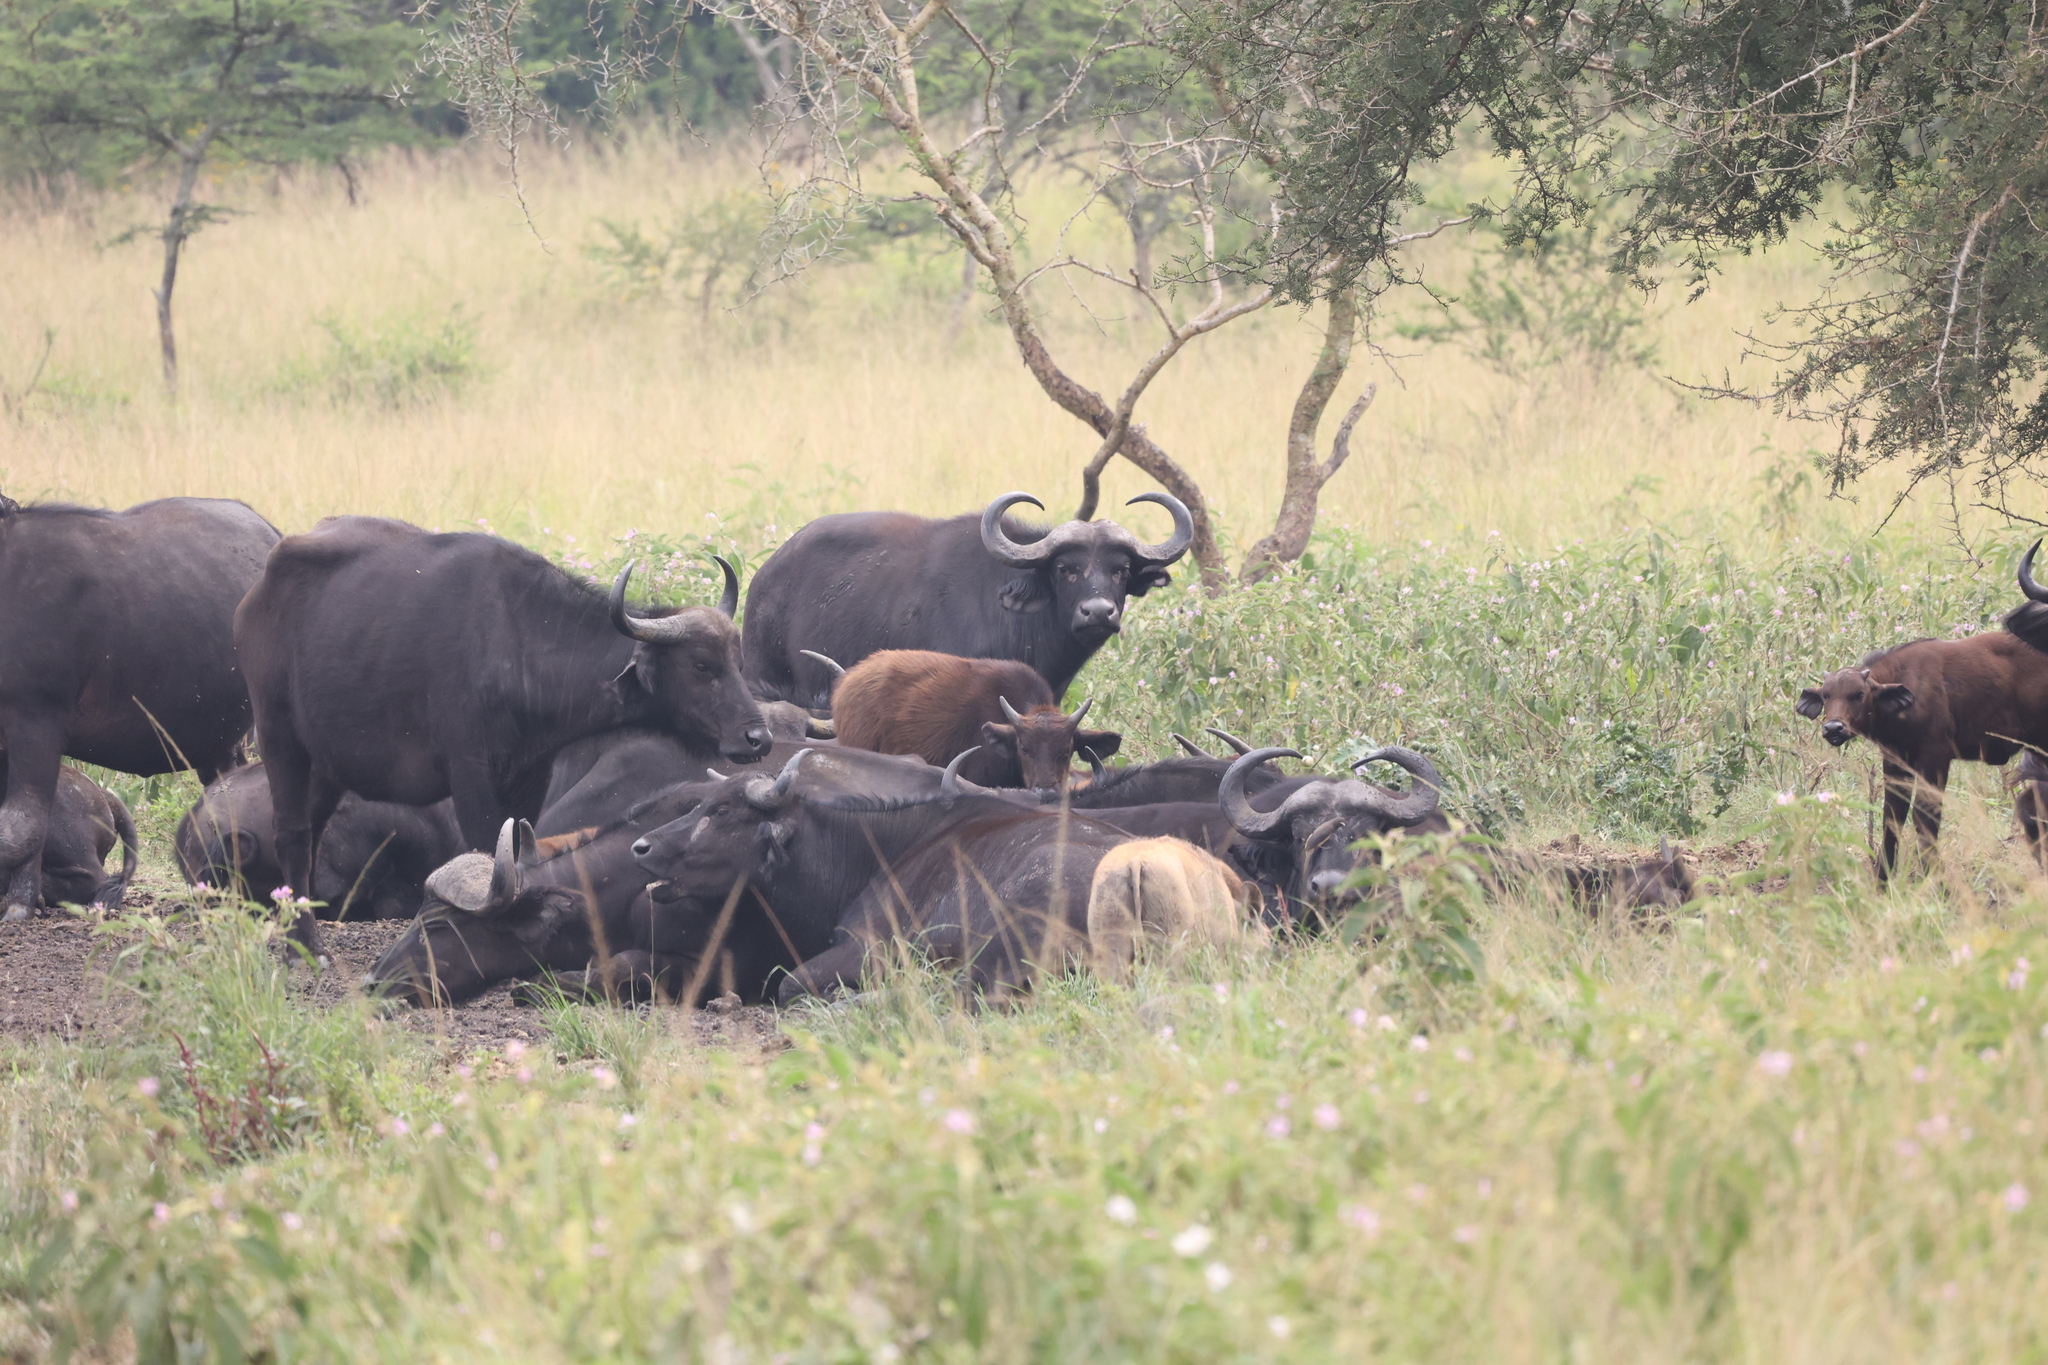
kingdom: Animalia
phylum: Chordata
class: Mammalia
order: Artiodactyla
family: Bovidae
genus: Syncerus
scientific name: Syncerus caffer
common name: African buffalo
